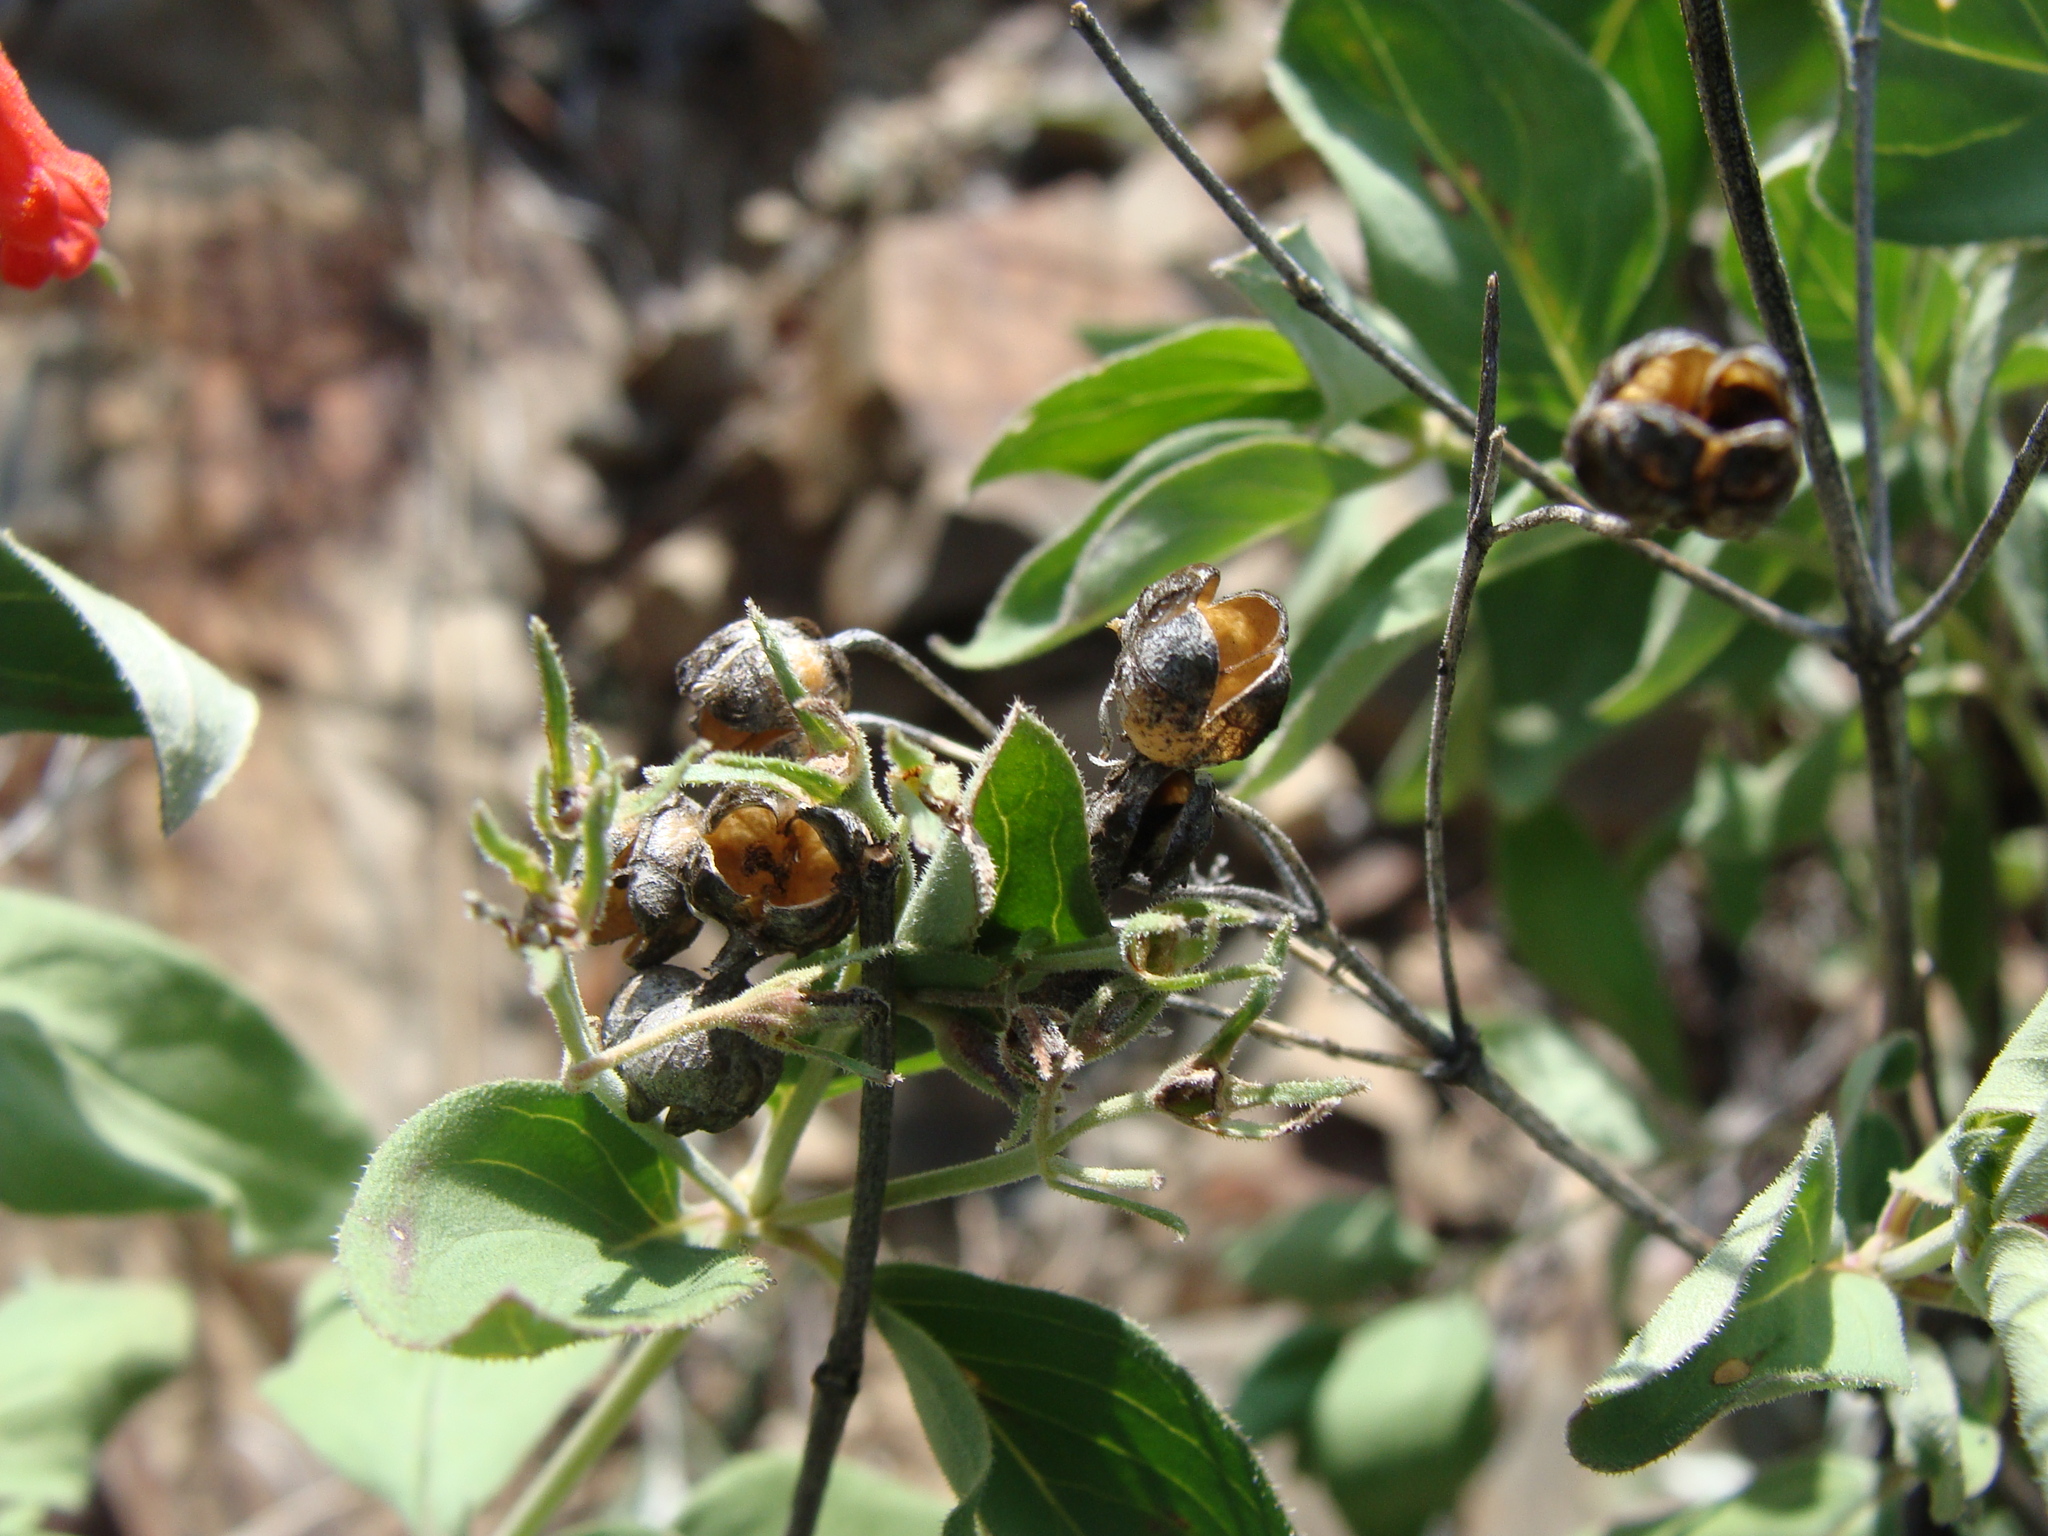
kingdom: Plantae
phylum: Tracheophyta
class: Magnoliopsida
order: Gentianales
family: Rubiaceae
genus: Bouvardia
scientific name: Bouvardia ternifolia
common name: Scarlet bouvardia
